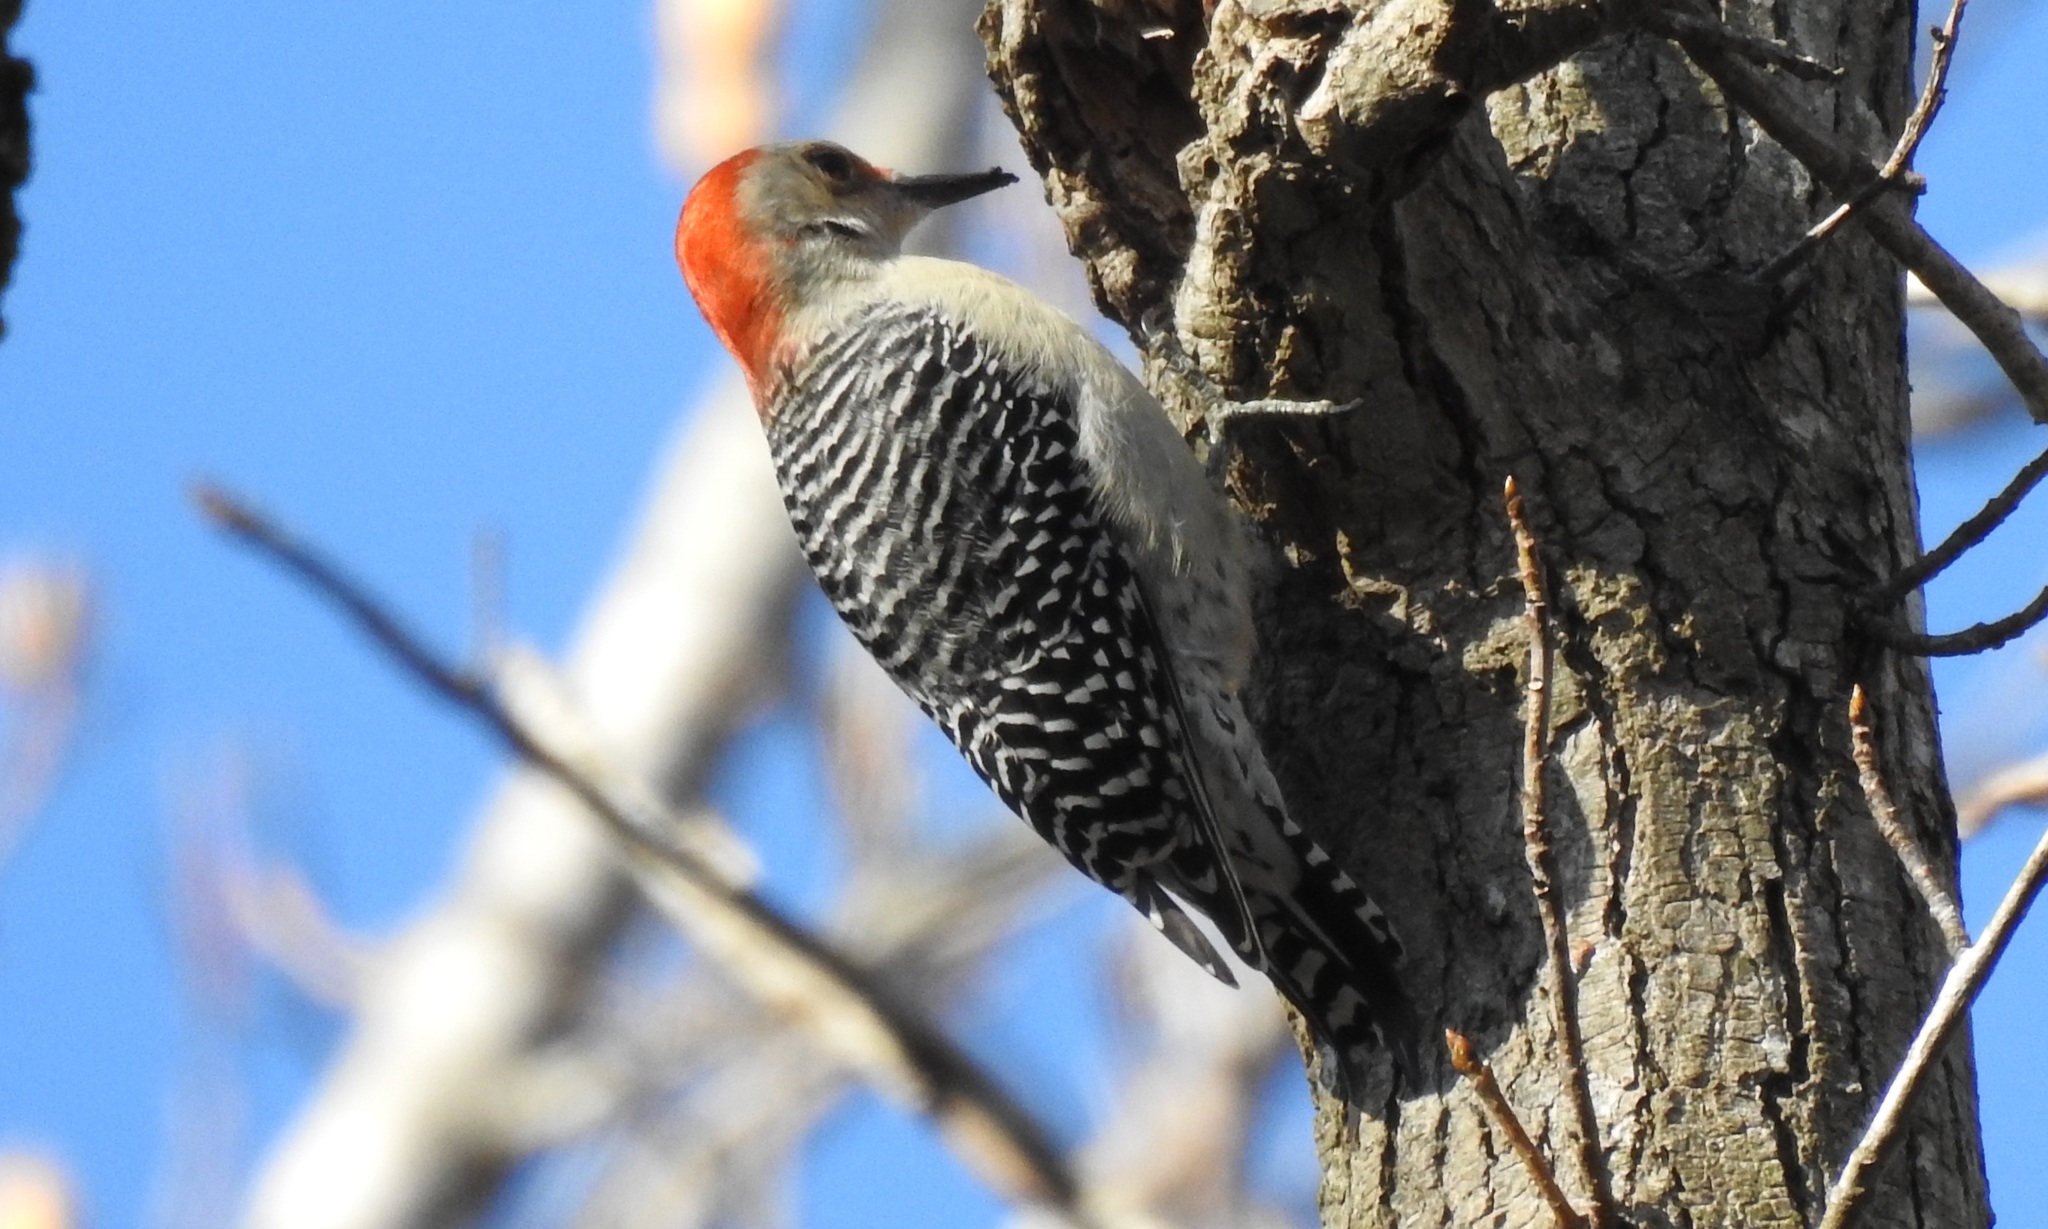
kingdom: Animalia
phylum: Chordata
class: Aves
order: Piciformes
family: Picidae
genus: Melanerpes
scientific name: Melanerpes carolinus
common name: Red-bellied woodpecker
